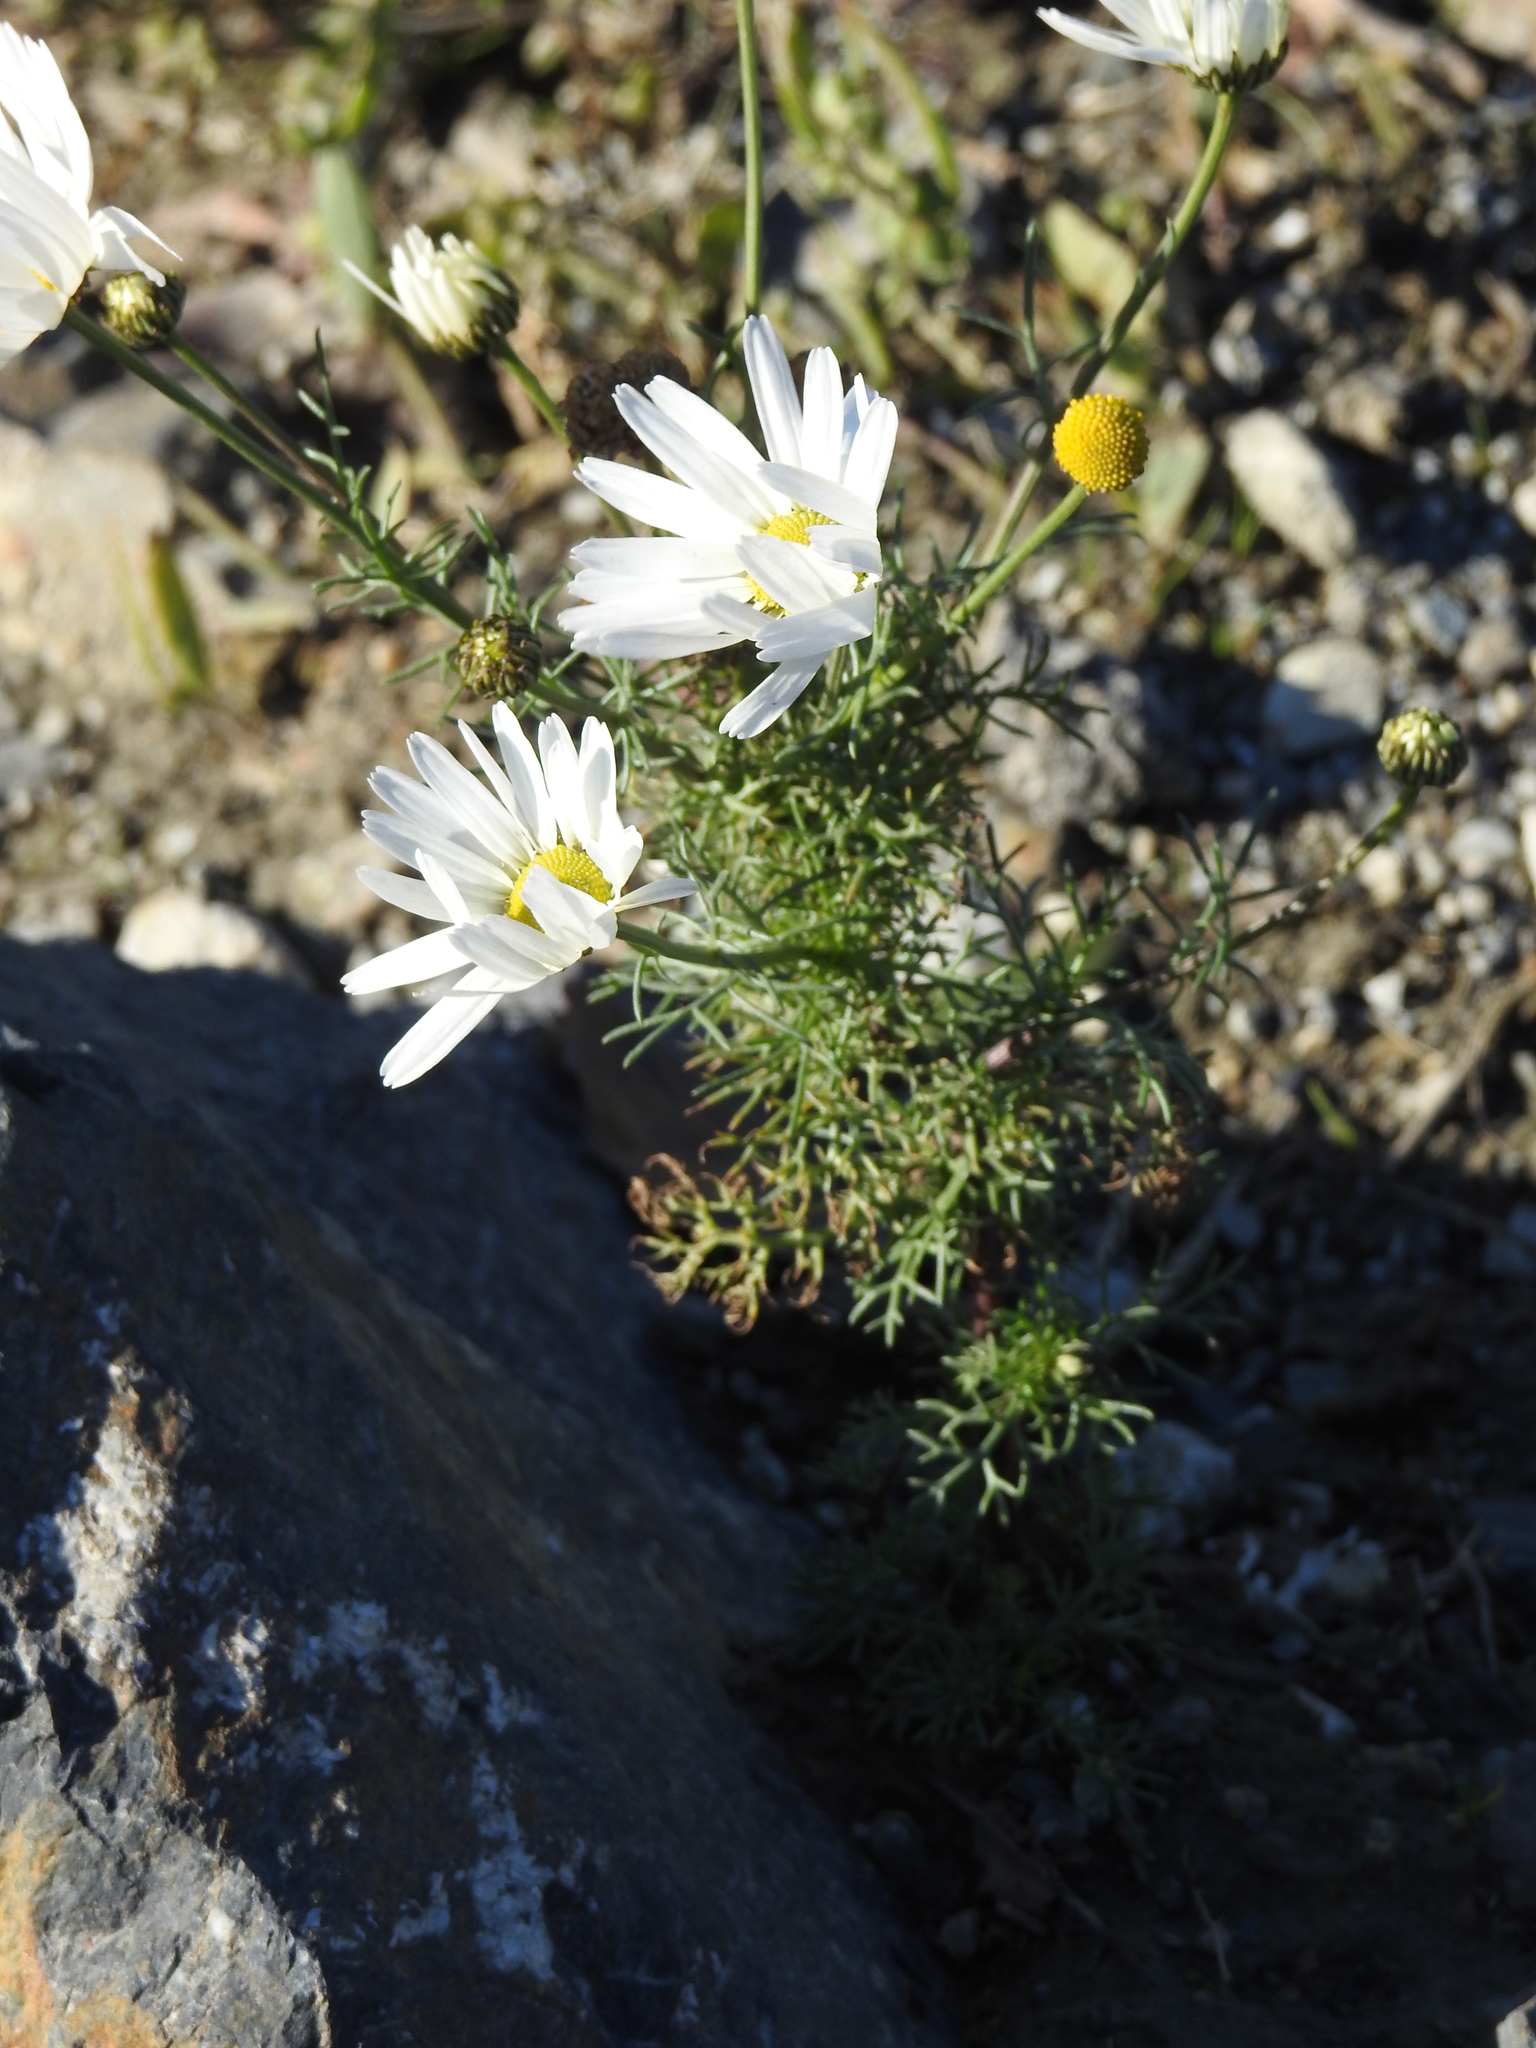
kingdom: Plantae
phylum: Tracheophyta
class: Magnoliopsida
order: Asterales
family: Asteraceae
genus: Tripleurospermum
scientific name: Tripleurospermum inodorum
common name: Scentless mayweed
